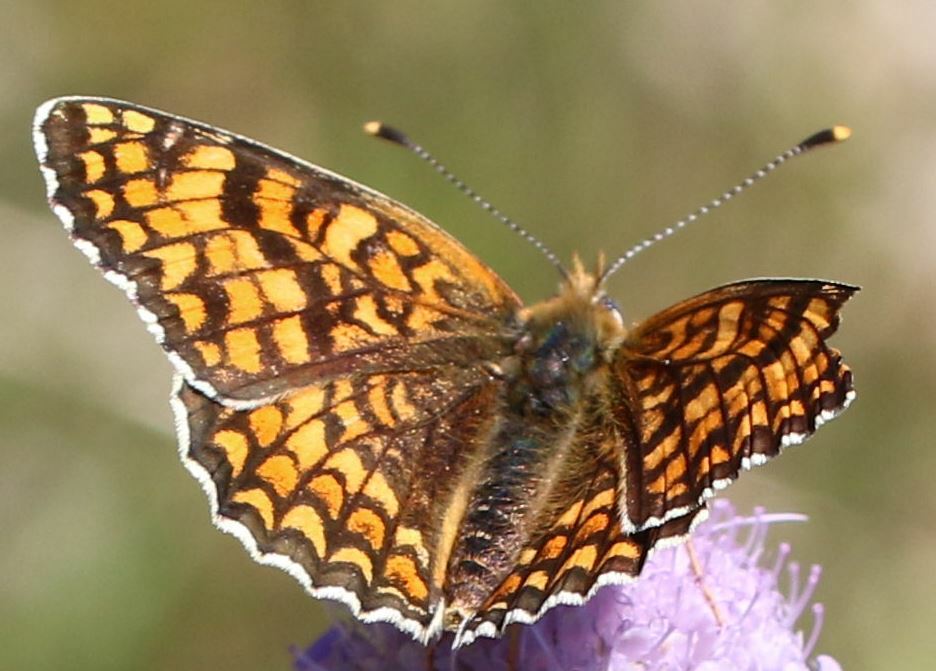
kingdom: Animalia
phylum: Arthropoda
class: Insecta
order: Lepidoptera
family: Nymphalidae
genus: Melitaea
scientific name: Melitaea phoebe
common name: Knapweed fritillary
